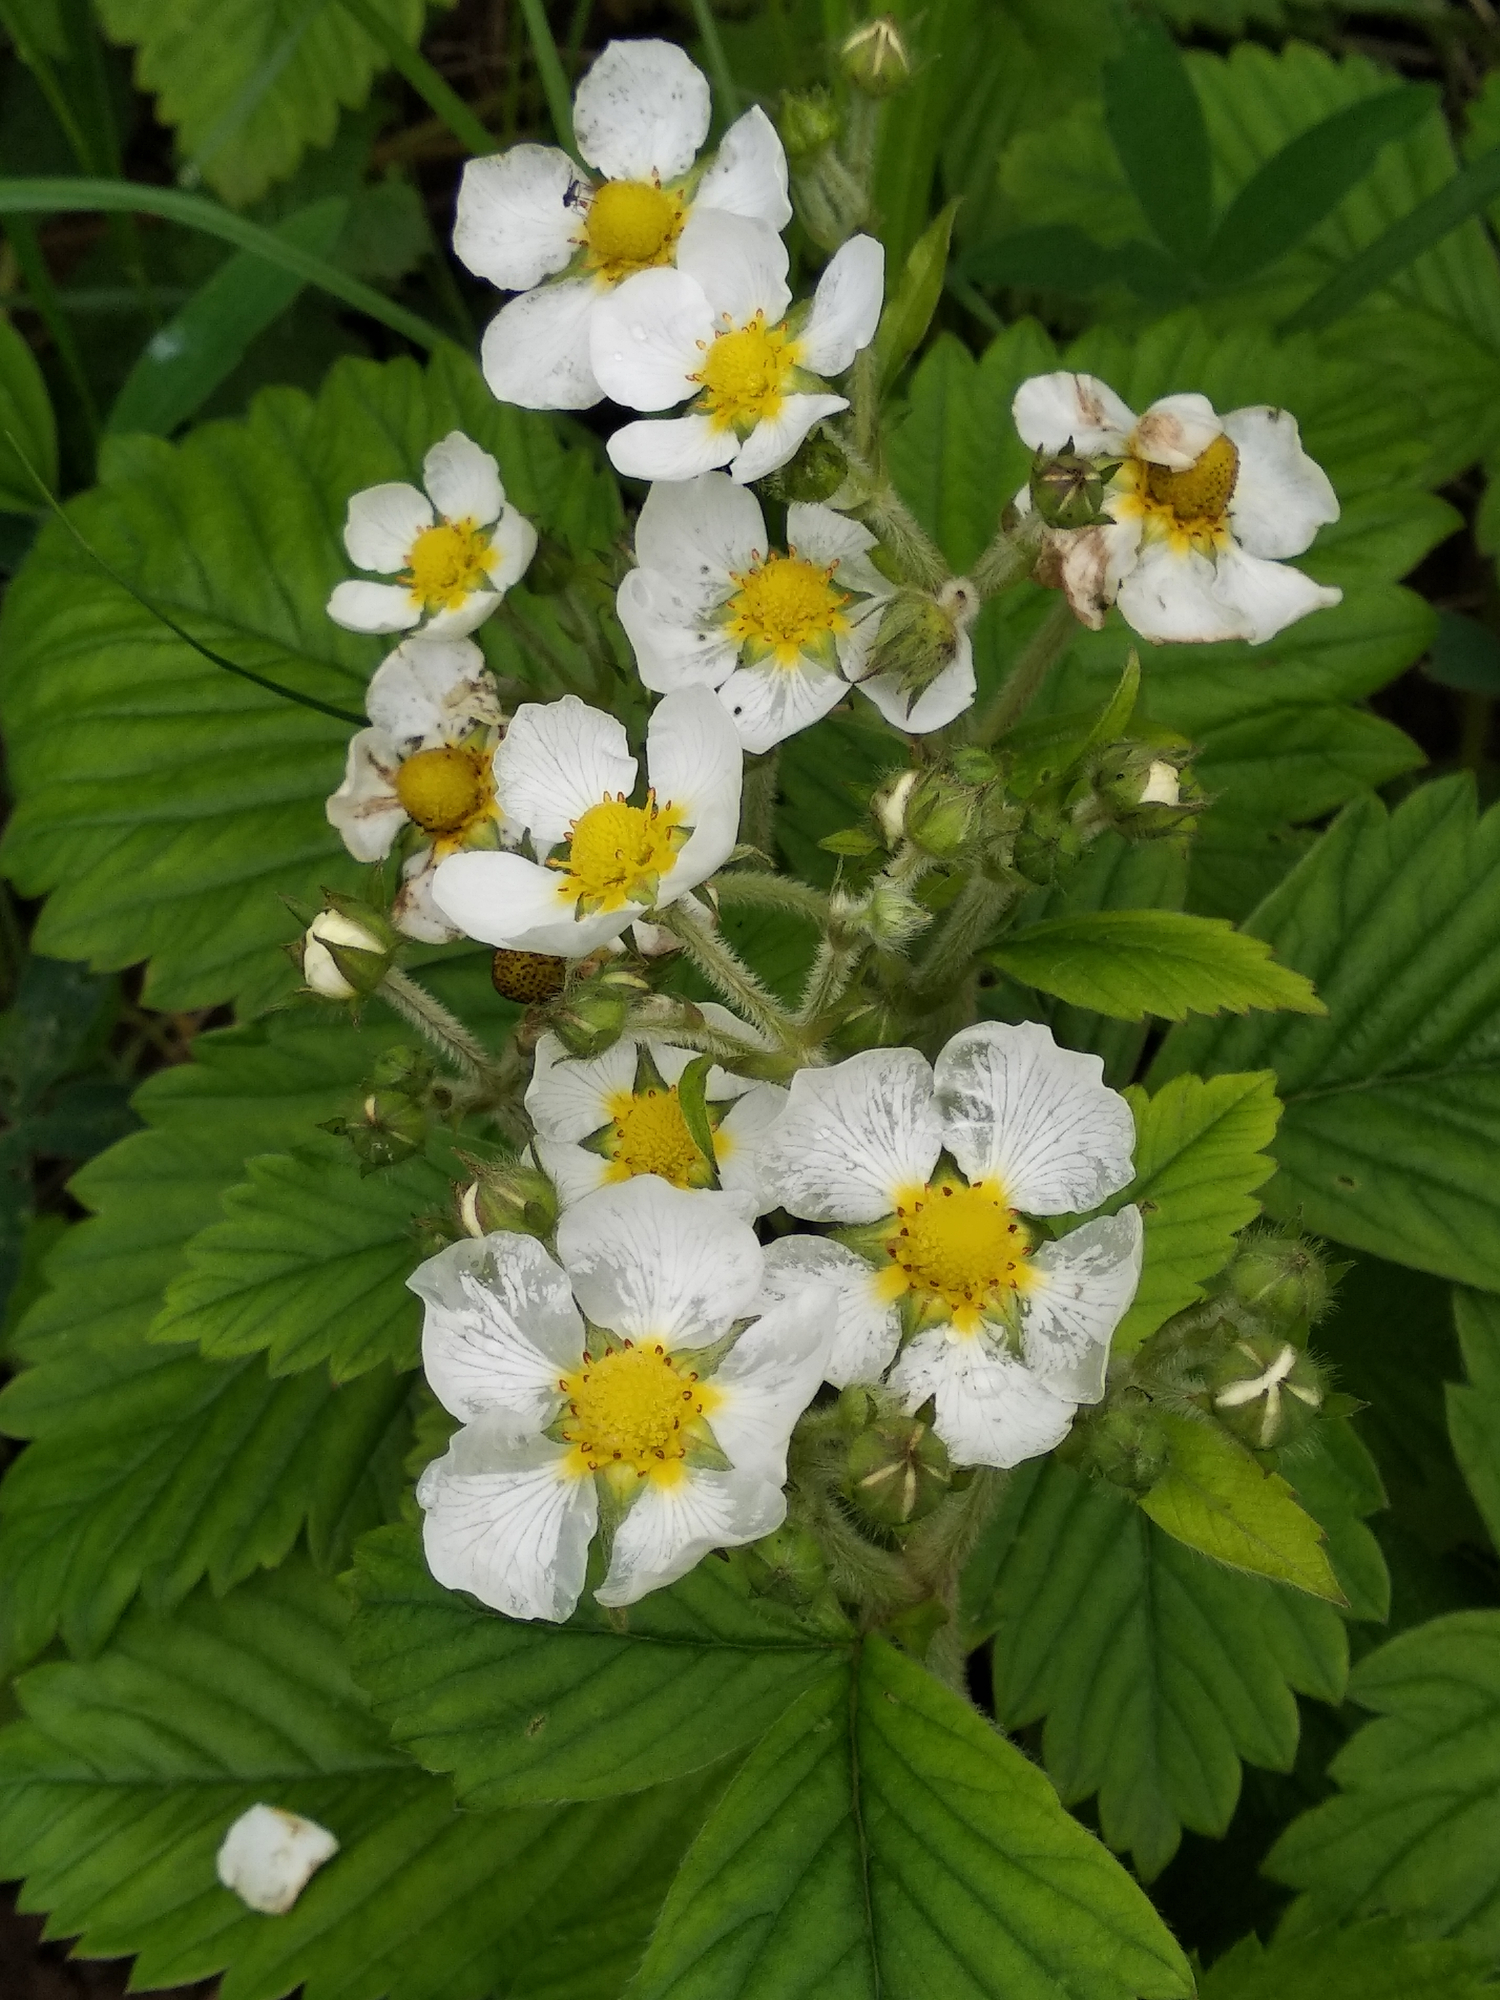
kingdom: Plantae
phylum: Tracheophyta
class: Magnoliopsida
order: Rosales
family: Rosaceae
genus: Fragaria
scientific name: Fragaria vesca
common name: Wild strawberry
